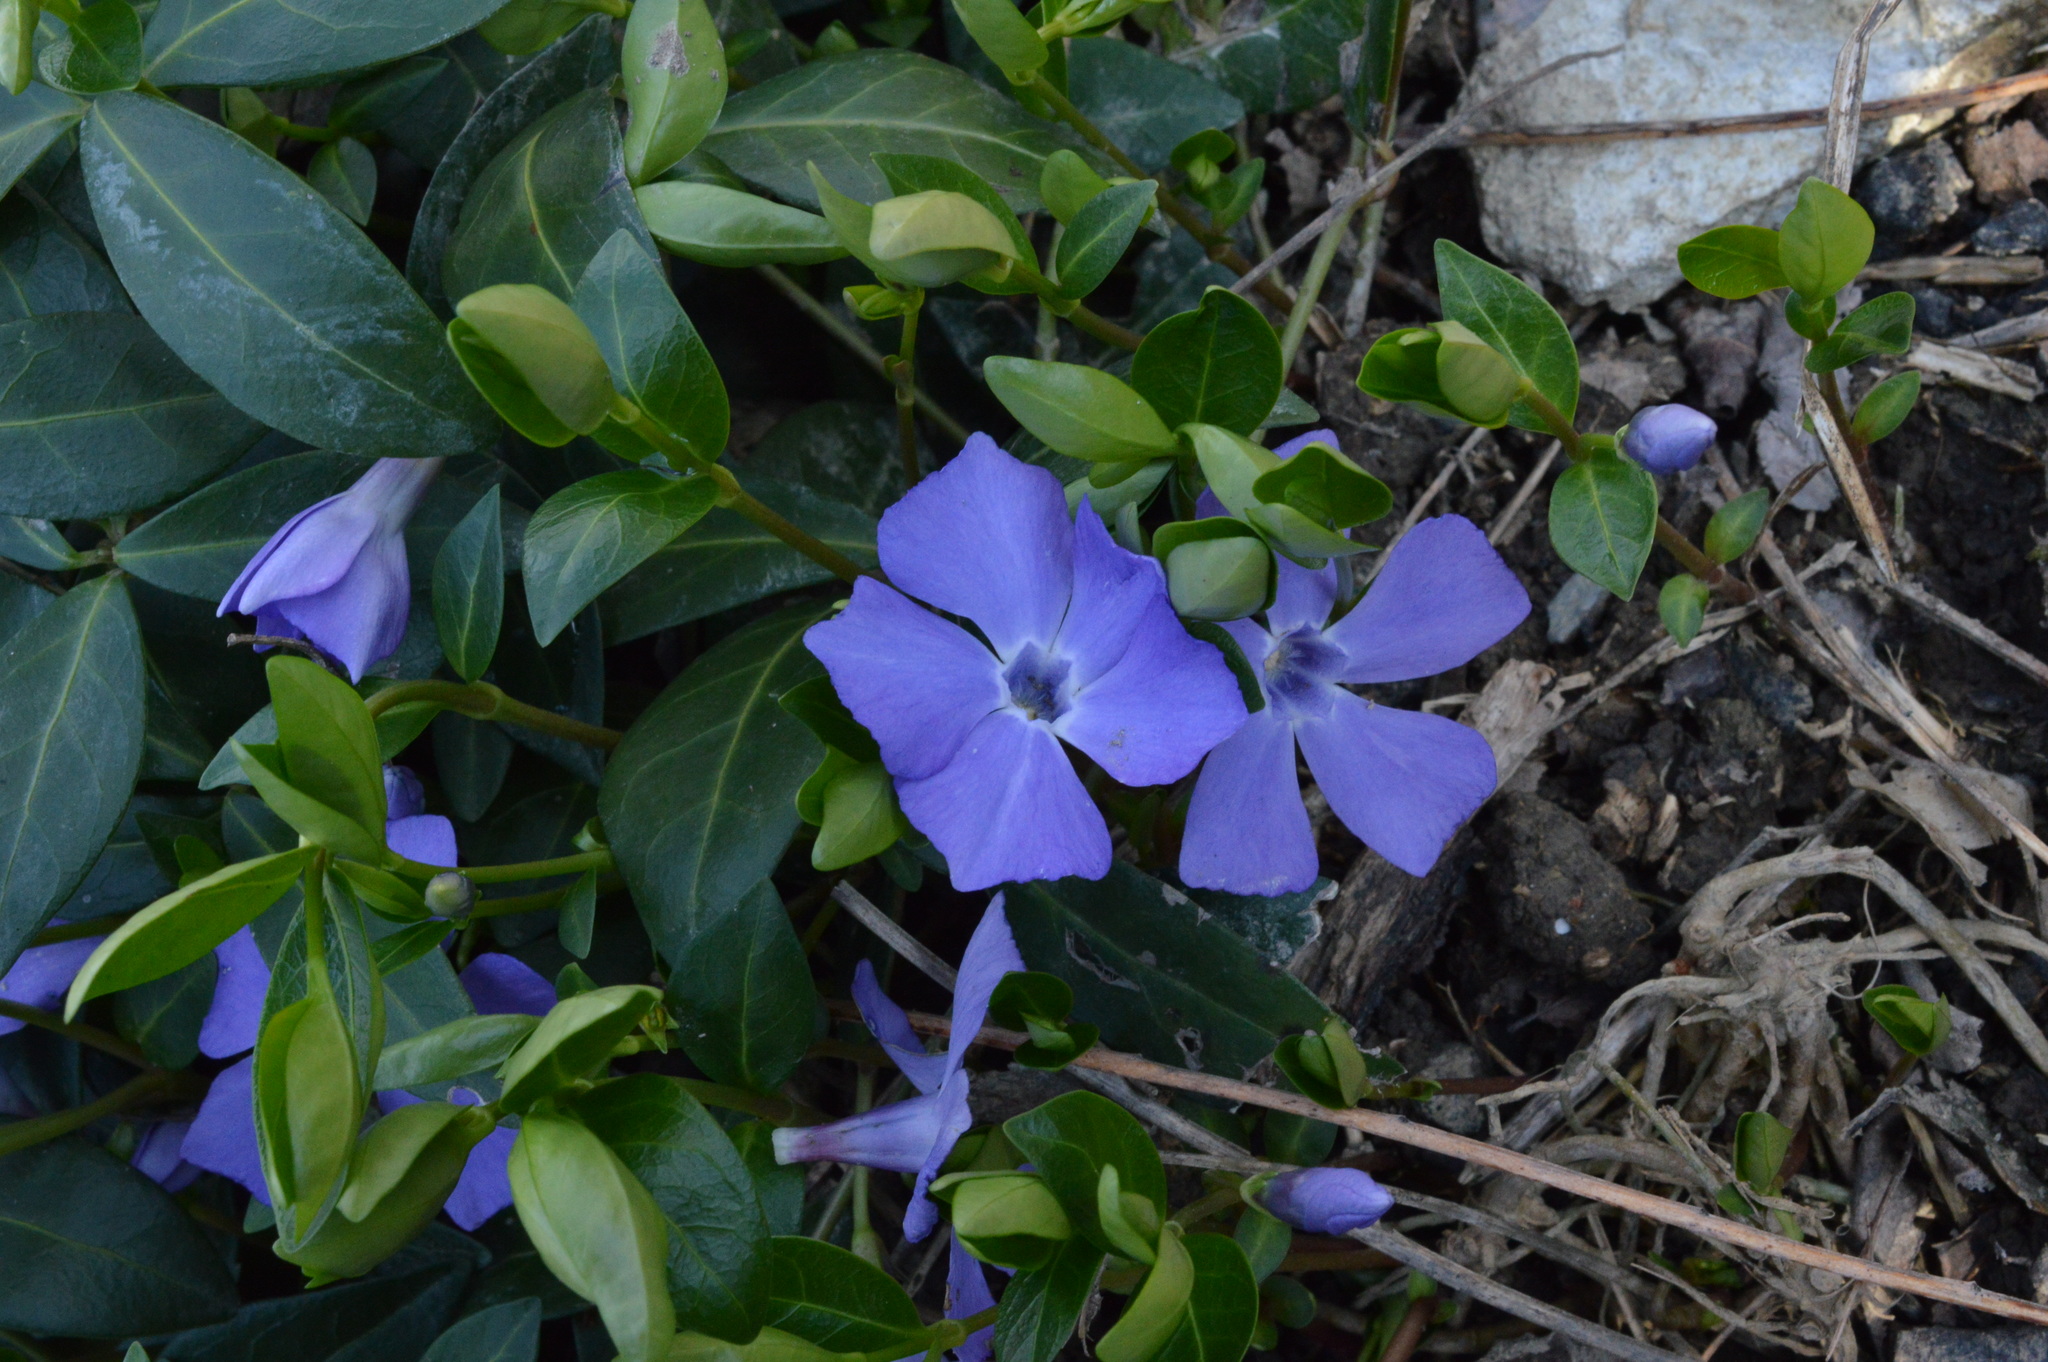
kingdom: Plantae
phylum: Tracheophyta
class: Magnoliopsida
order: Gentianales
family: Apocynaceae
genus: Vinca
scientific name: Vinca minor
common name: Lesser periwinkle
